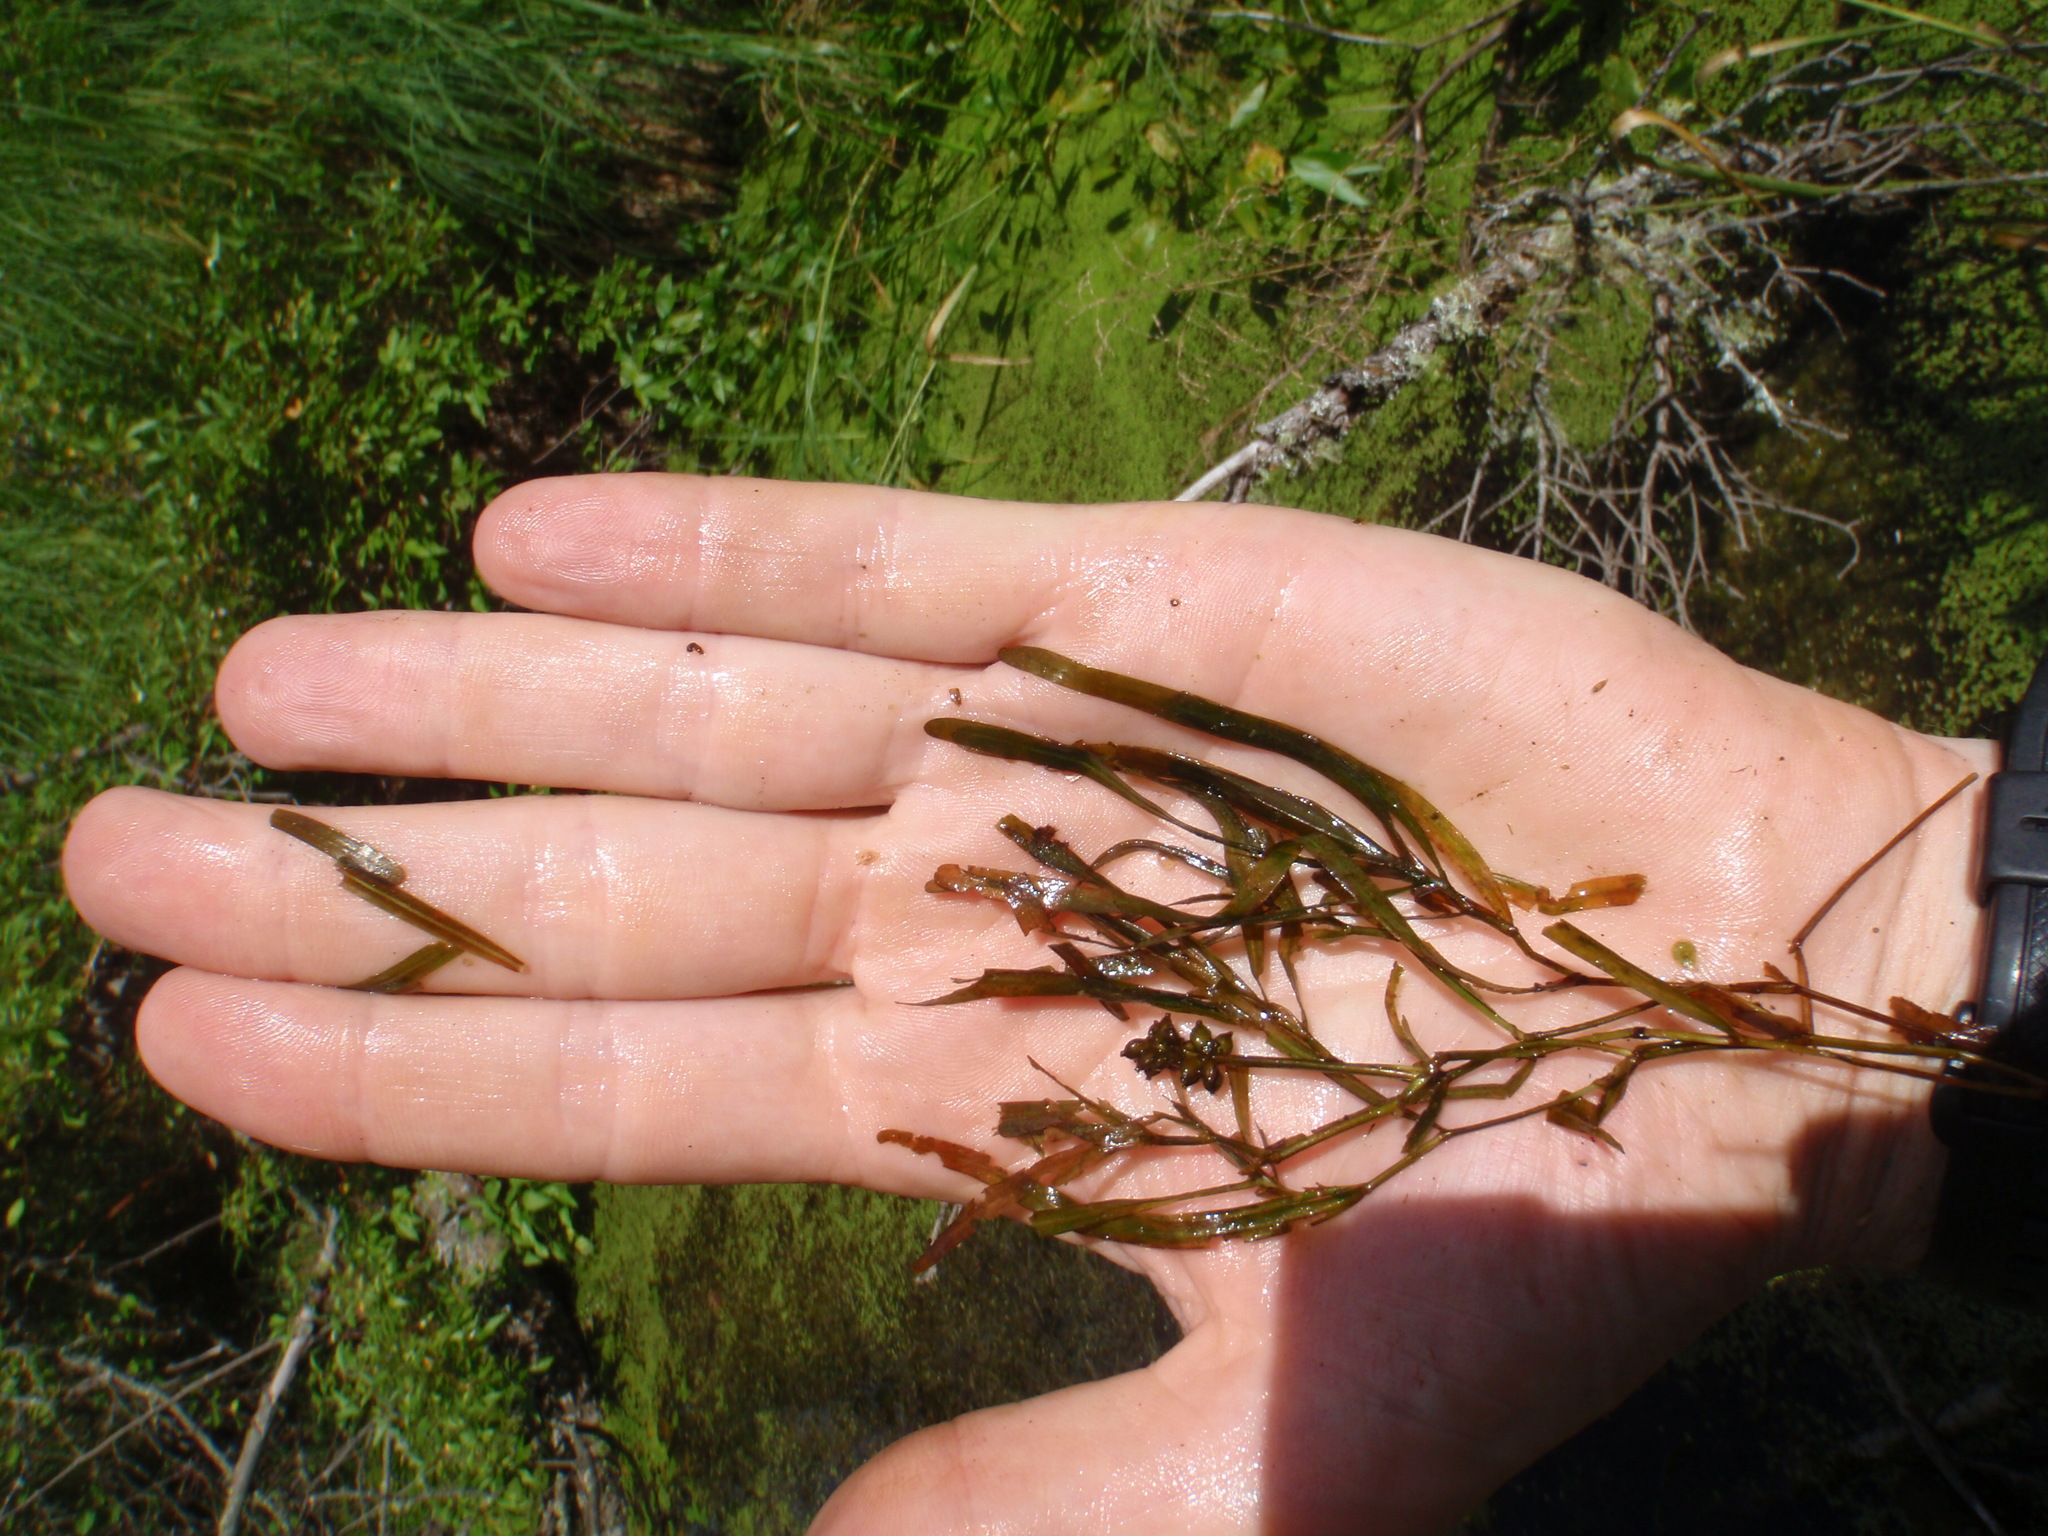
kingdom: Plantae
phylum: Tracheophyta
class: Liliopsida
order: Alismatales
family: Potamogetonaceae
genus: Potamogeton
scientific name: Potamogeton obtusifolius
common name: Blunt-leaved pondweed
